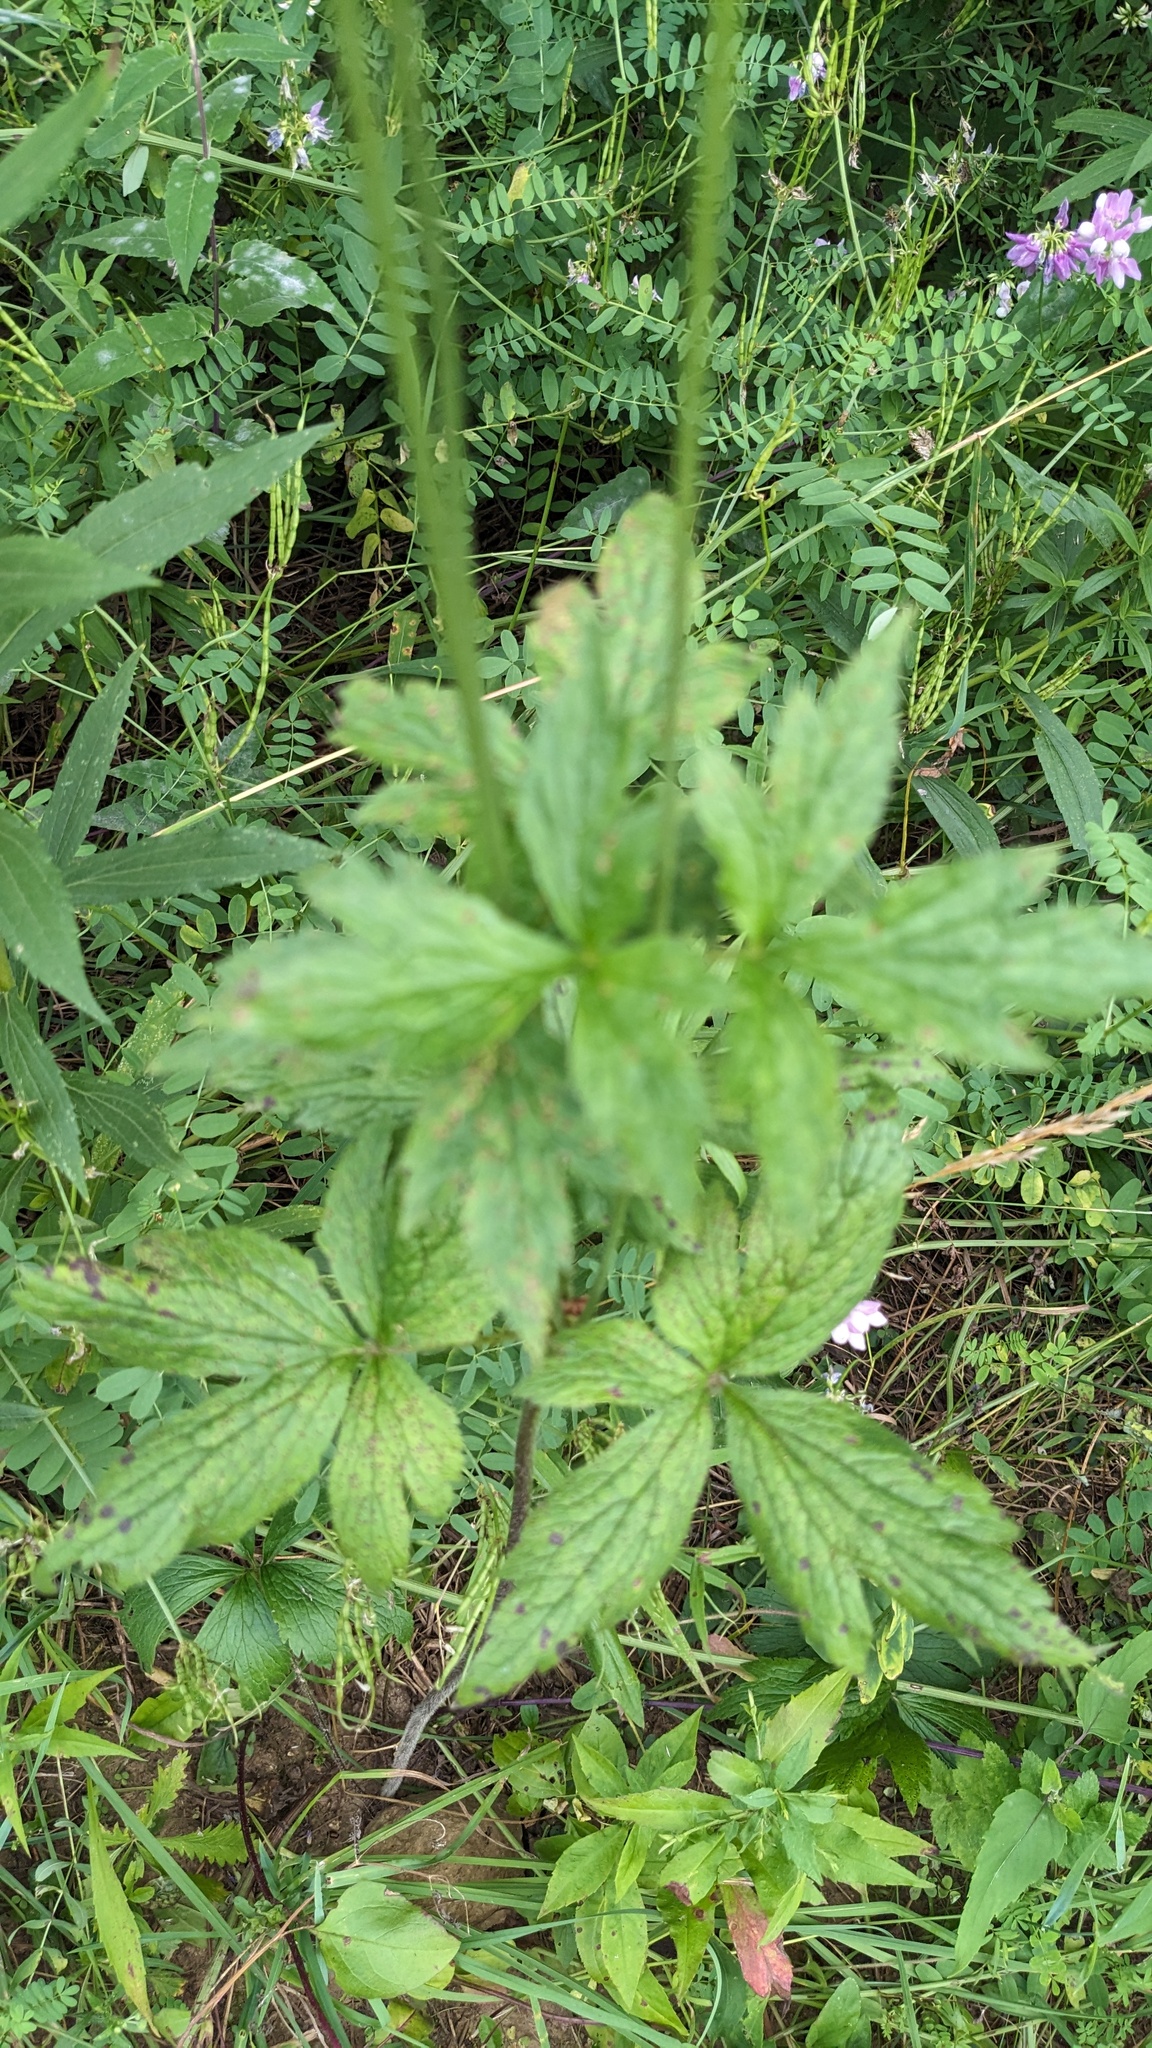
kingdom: Plantae
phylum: Tracheophyta
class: Magnoliopsida
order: Ranunculales
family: Ranunculaceae
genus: Anemone
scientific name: Anemone virginiana
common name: Tall anemone
